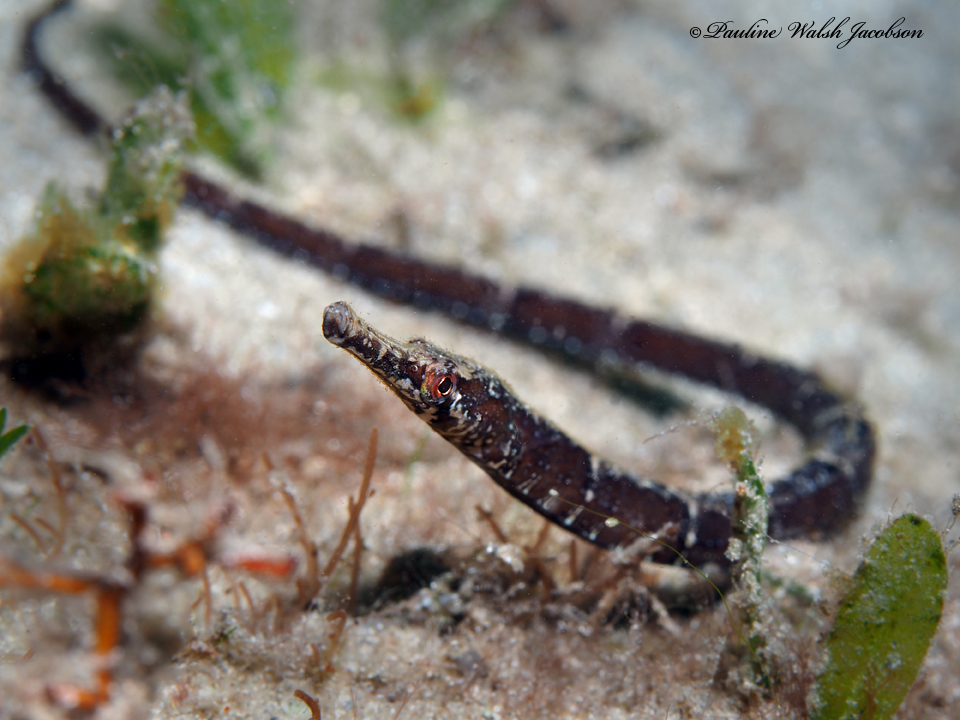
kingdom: Animalia
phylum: Chordata
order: Syngnathiformes
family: Syngnathidae
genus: Syngnathus
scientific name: Syngnathus louisianae
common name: Chain pipefish
